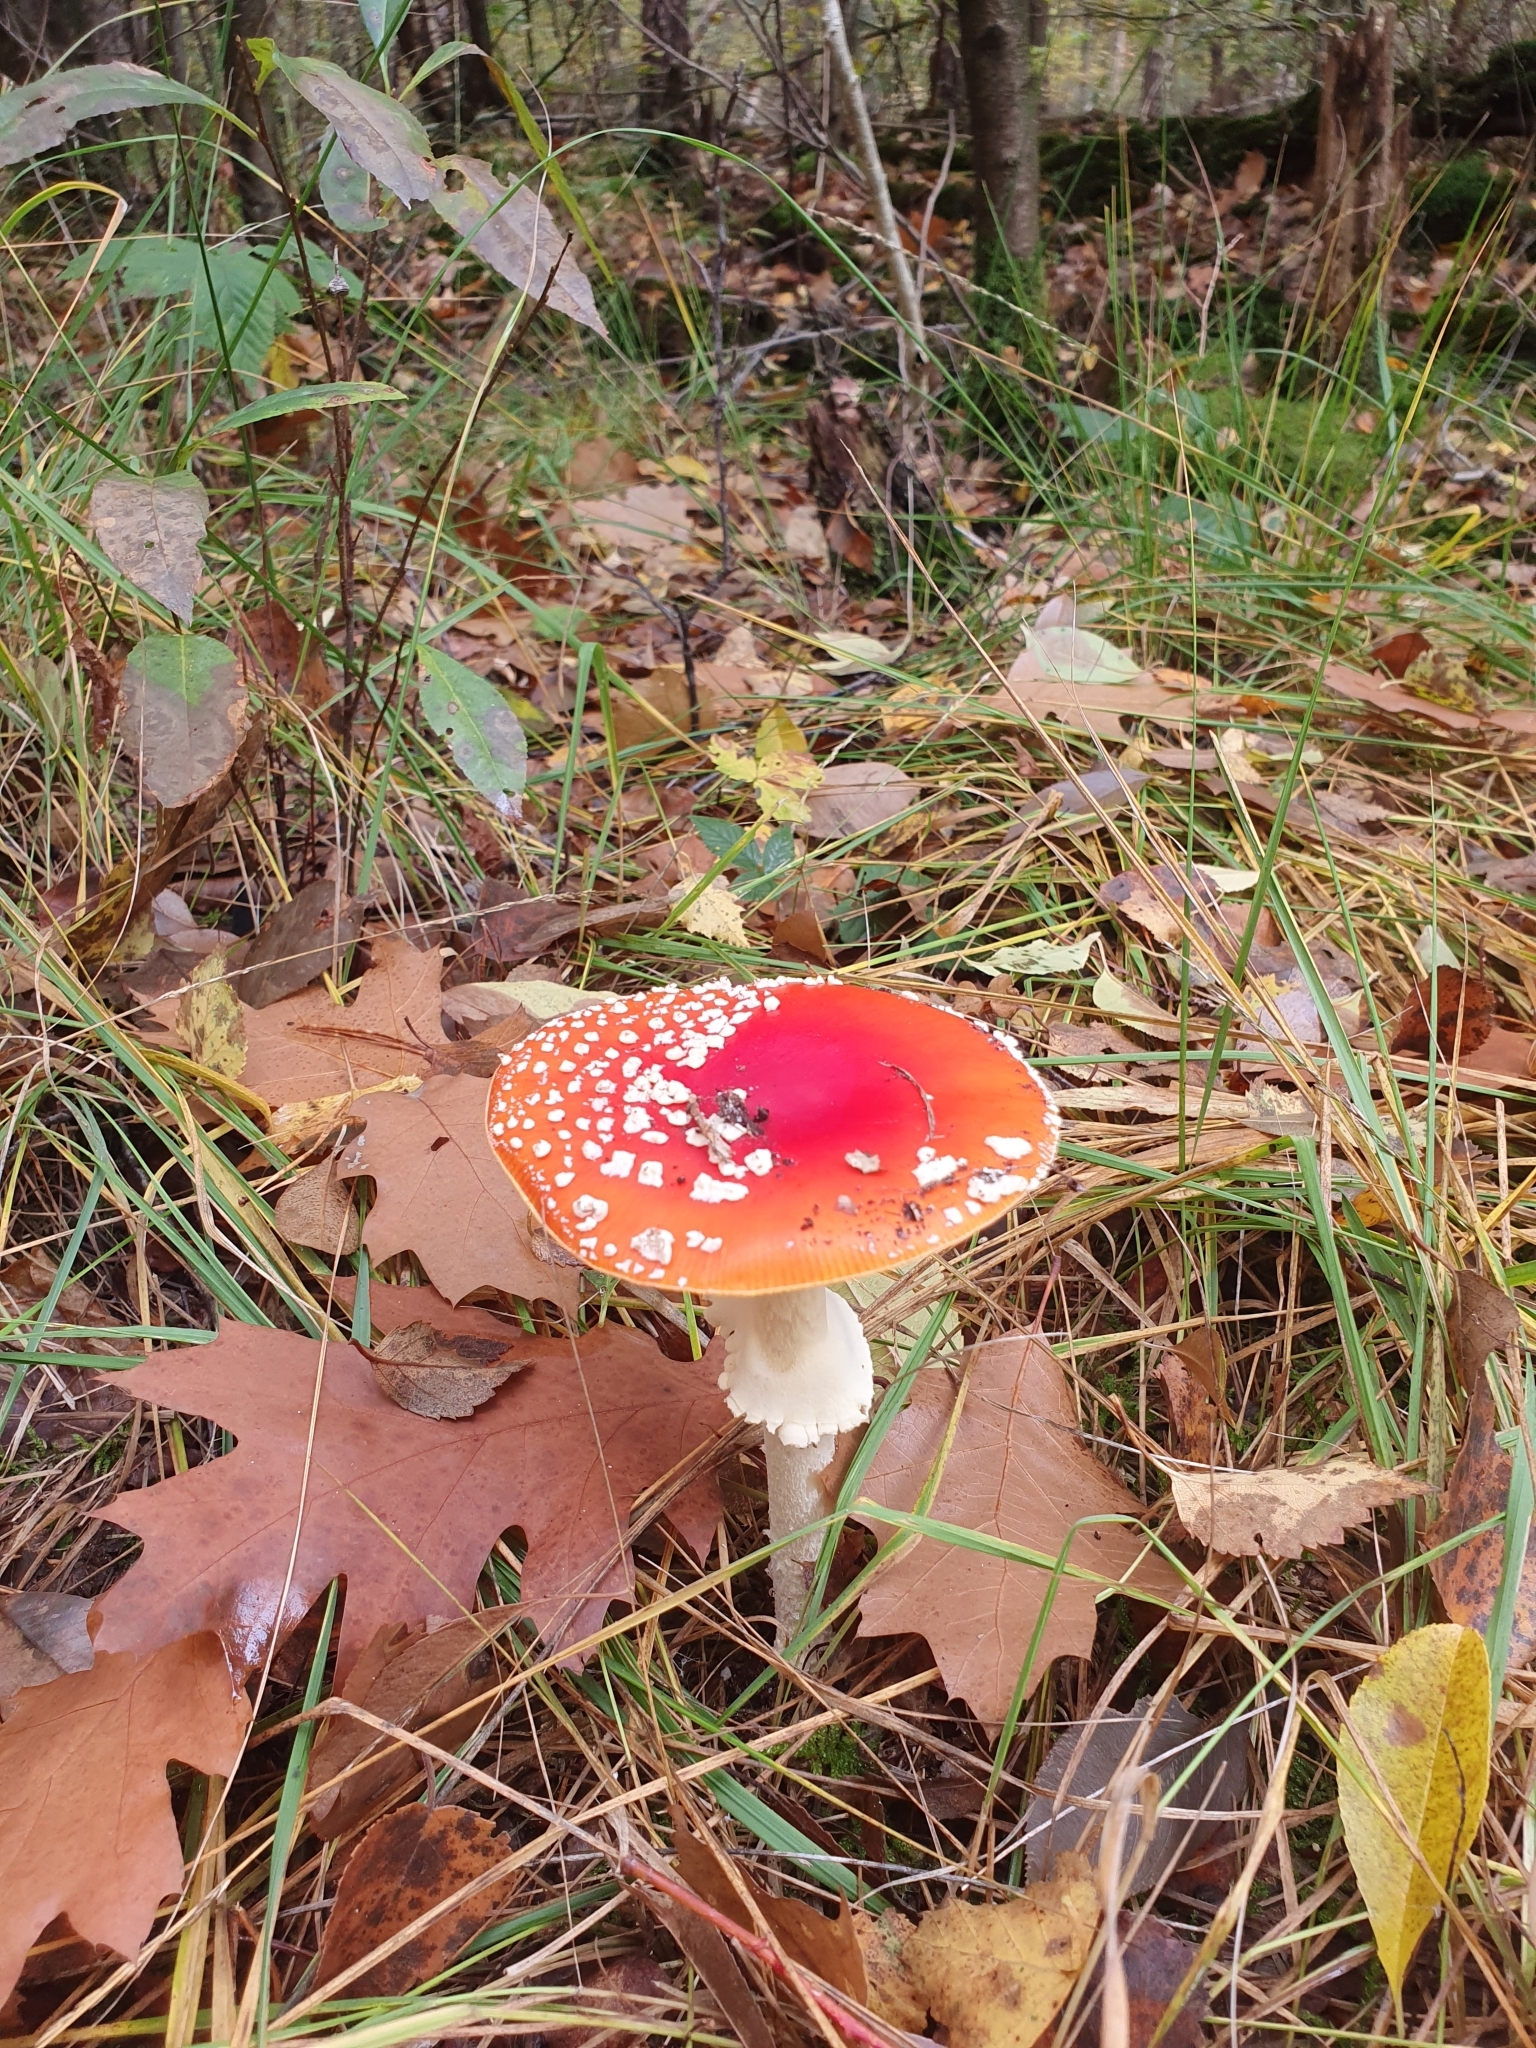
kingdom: Fungi
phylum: Basidiomycota
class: Agaricomycetes
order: Agaricales
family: Amanitaceae
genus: Amanita
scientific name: Amanita muscaria
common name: Fly agaric
